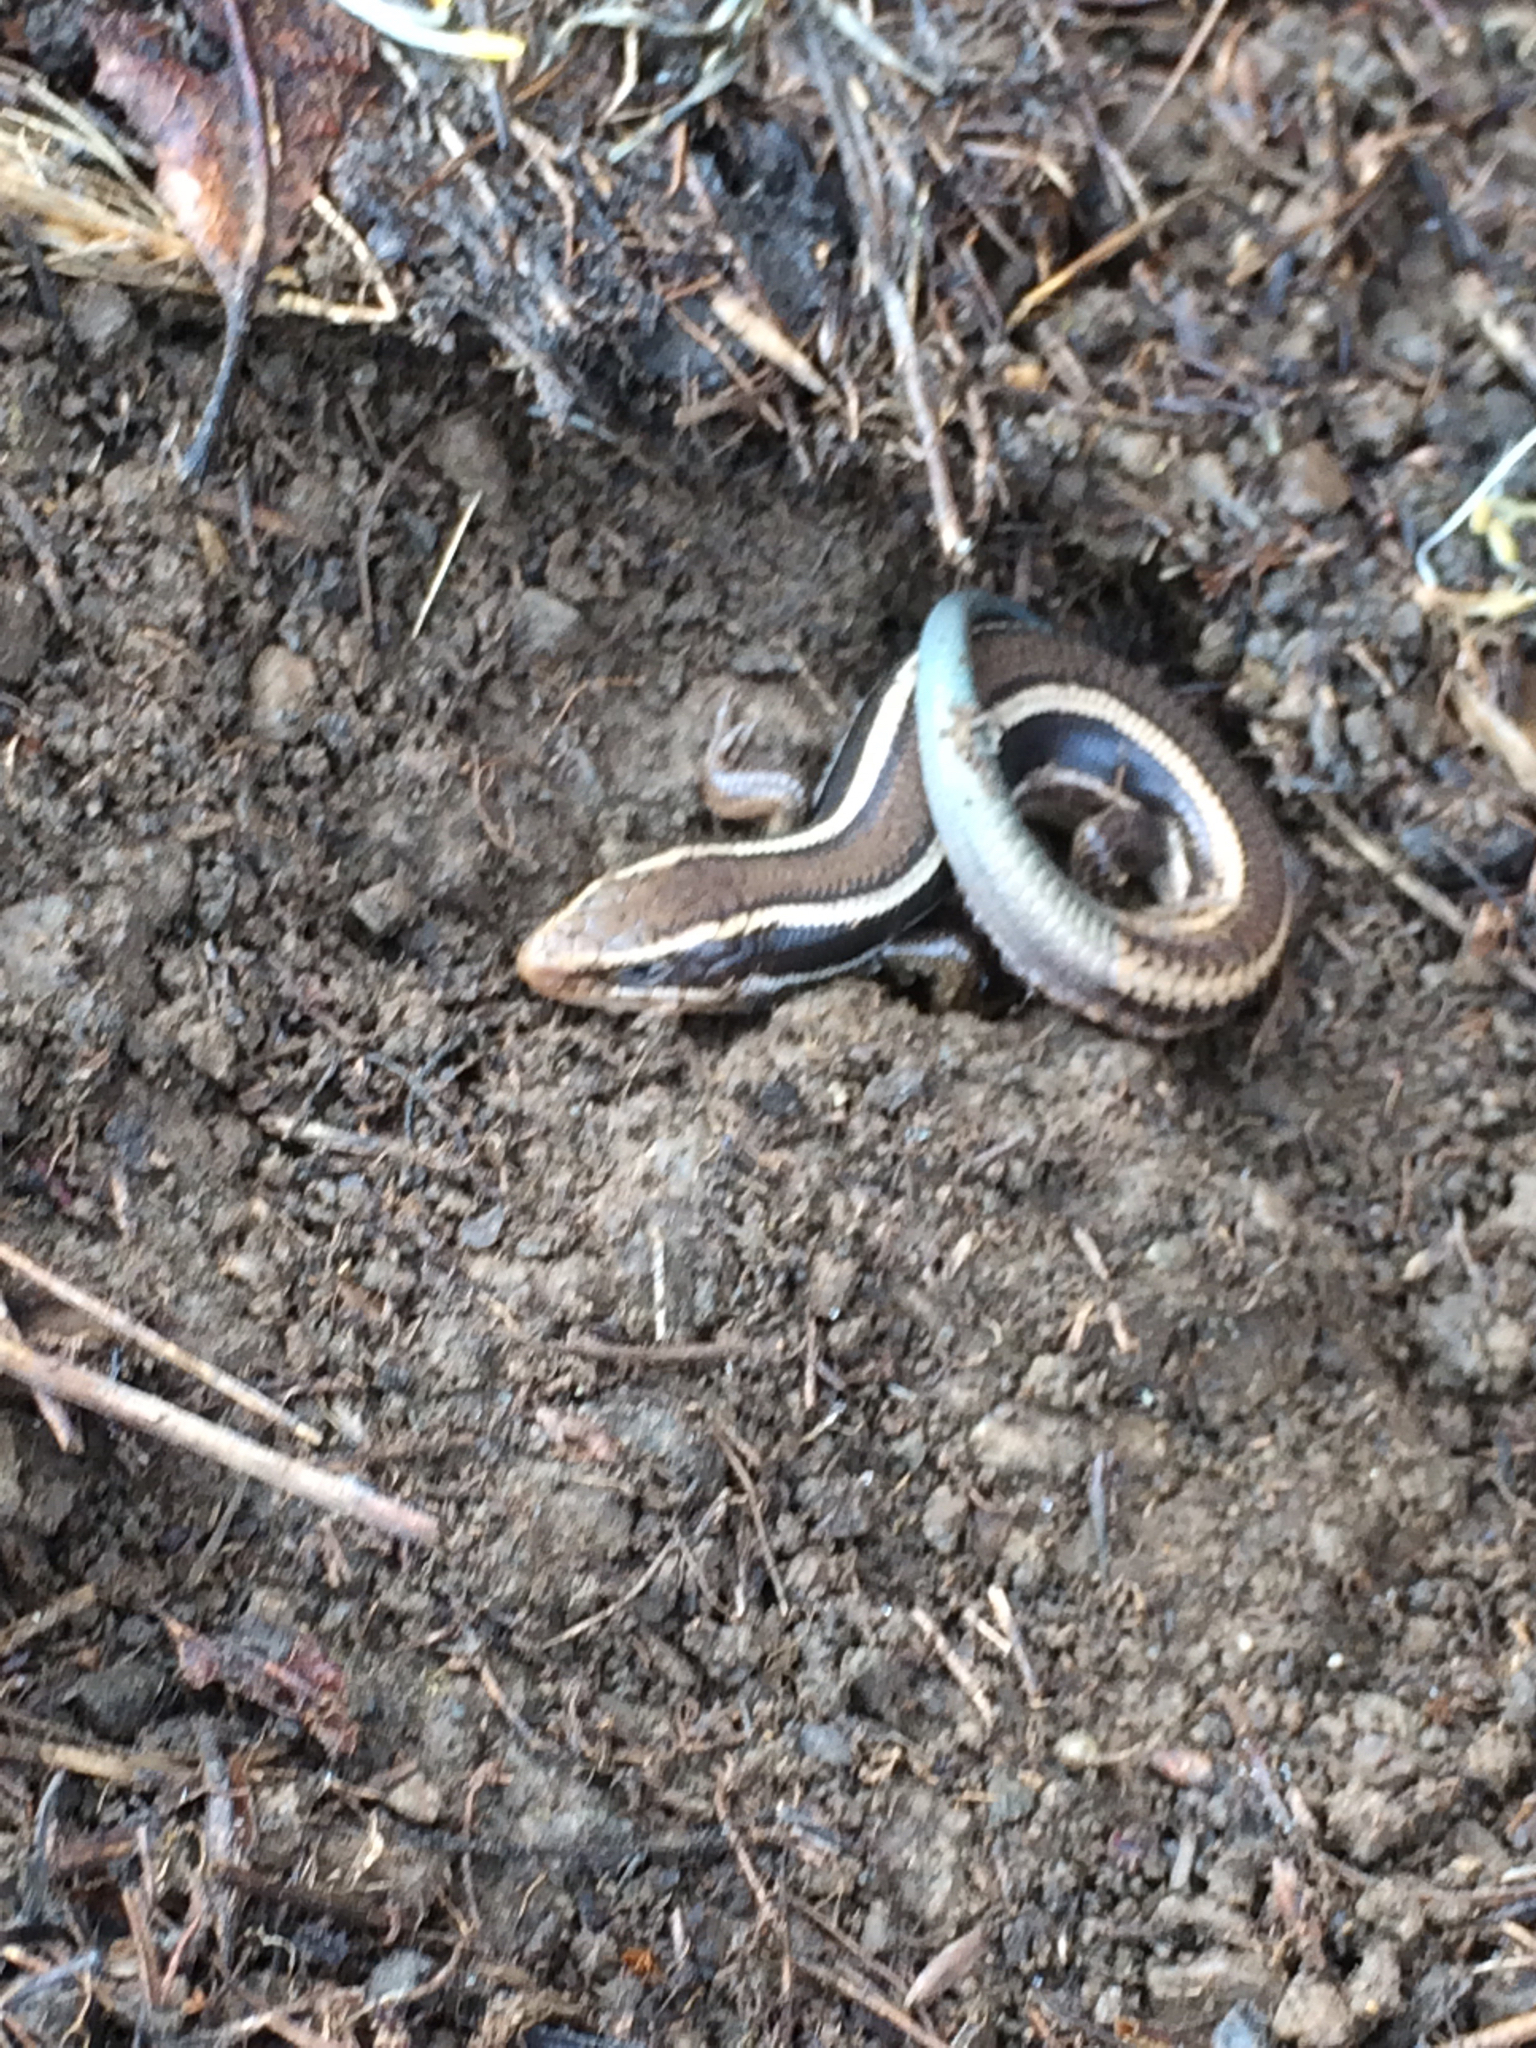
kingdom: Animalia
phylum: Chordata
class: Squamata
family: Scincidae
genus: Plestiodon
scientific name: Plestiodon skiltonianus
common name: Coronado island skink [interparietalis]
